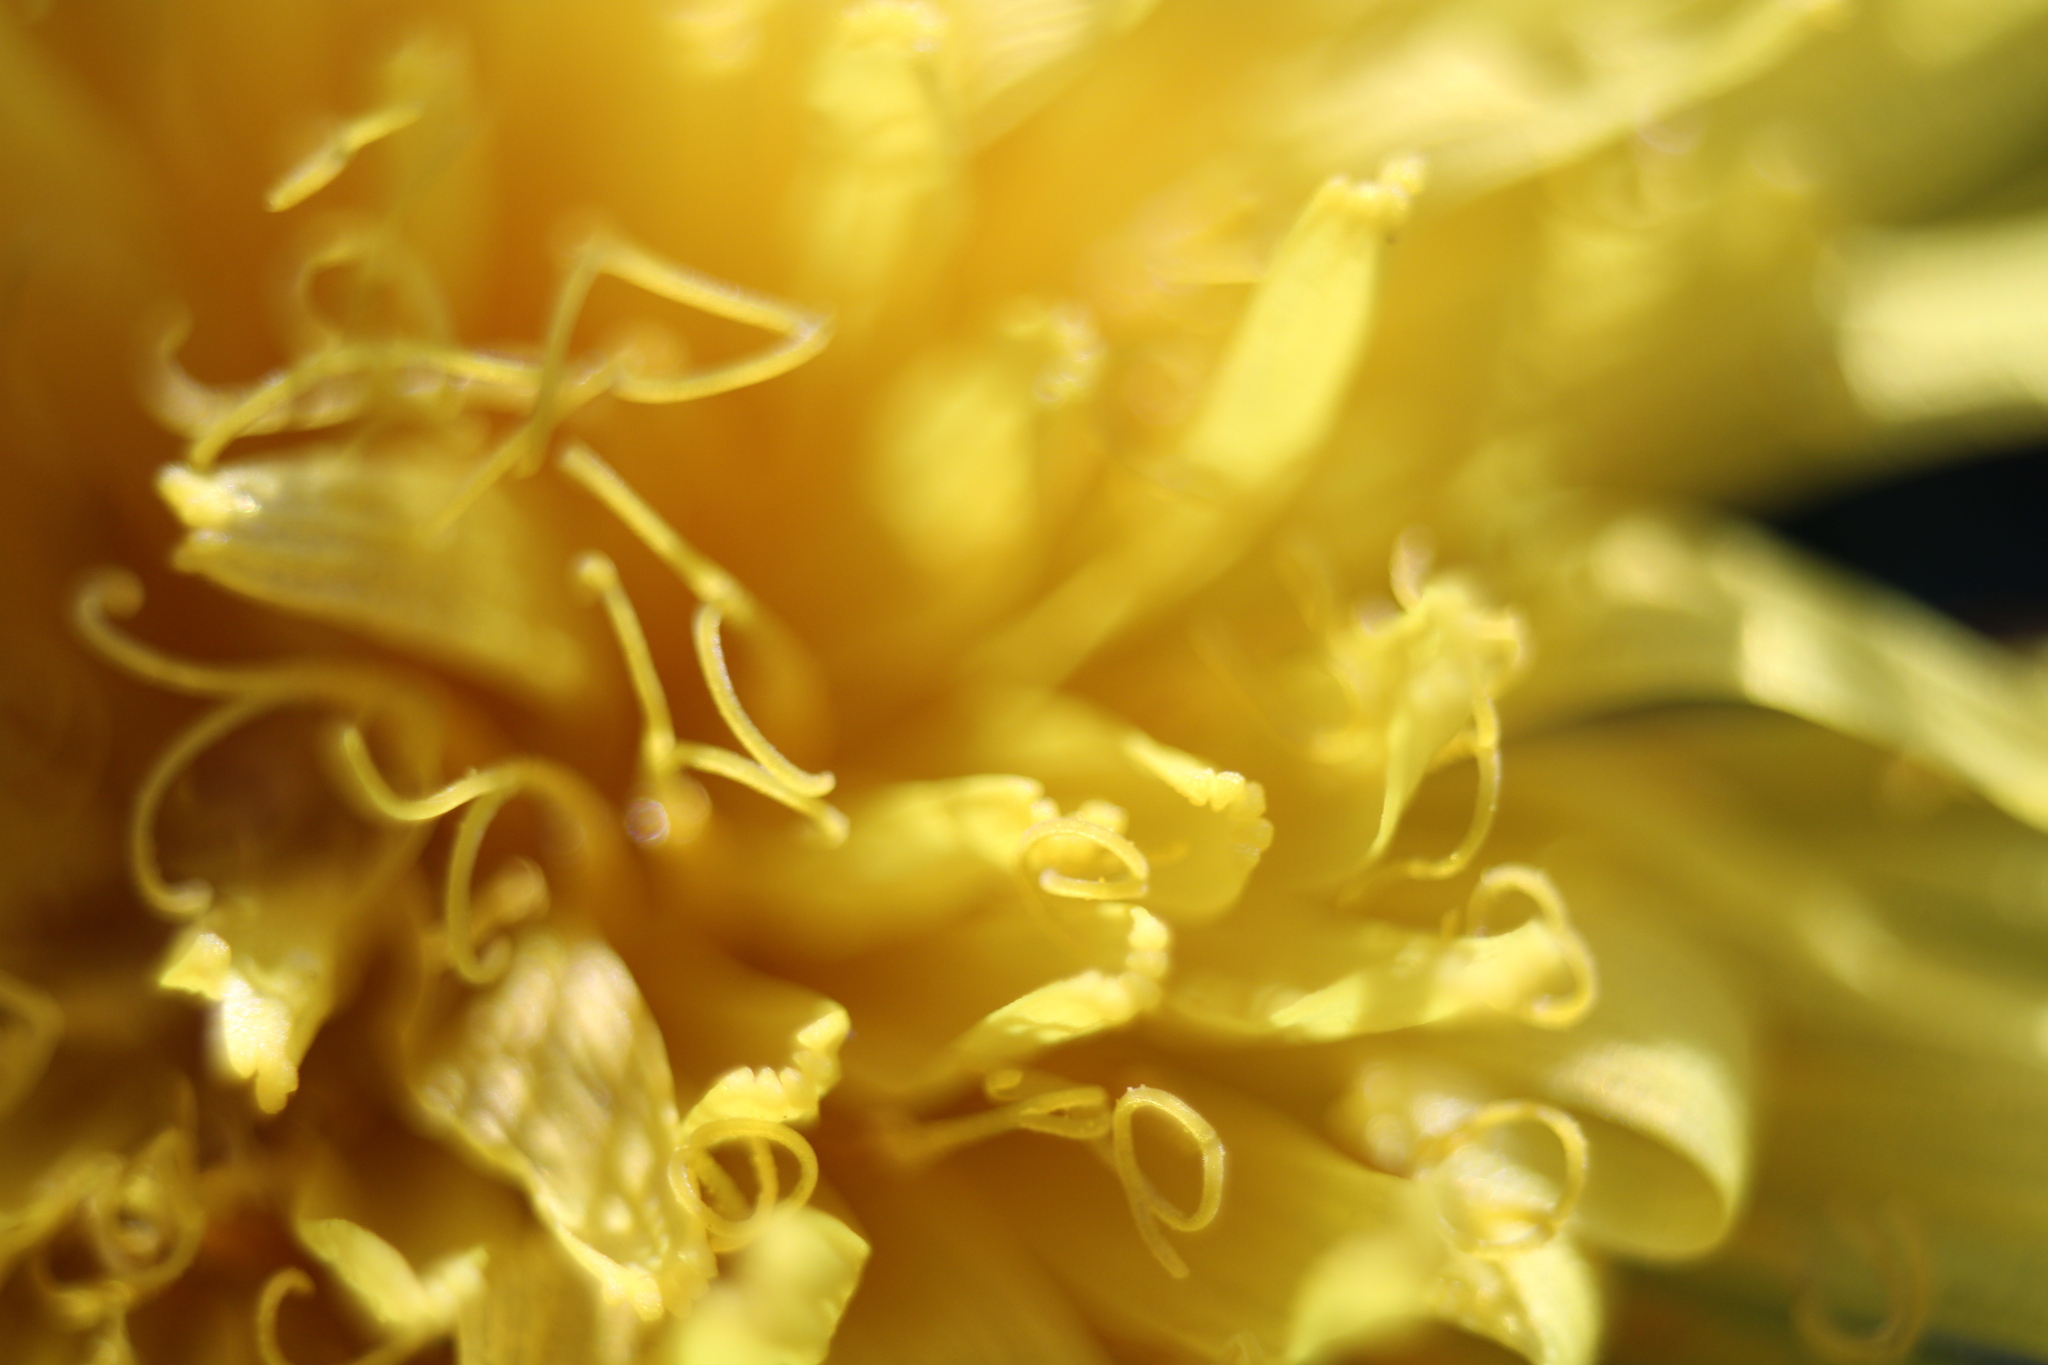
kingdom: Plantae
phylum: Tracheophyta
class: Magnoliopsida
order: Asterales
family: Asteraceae
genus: Taraxacum
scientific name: Taraxacum
